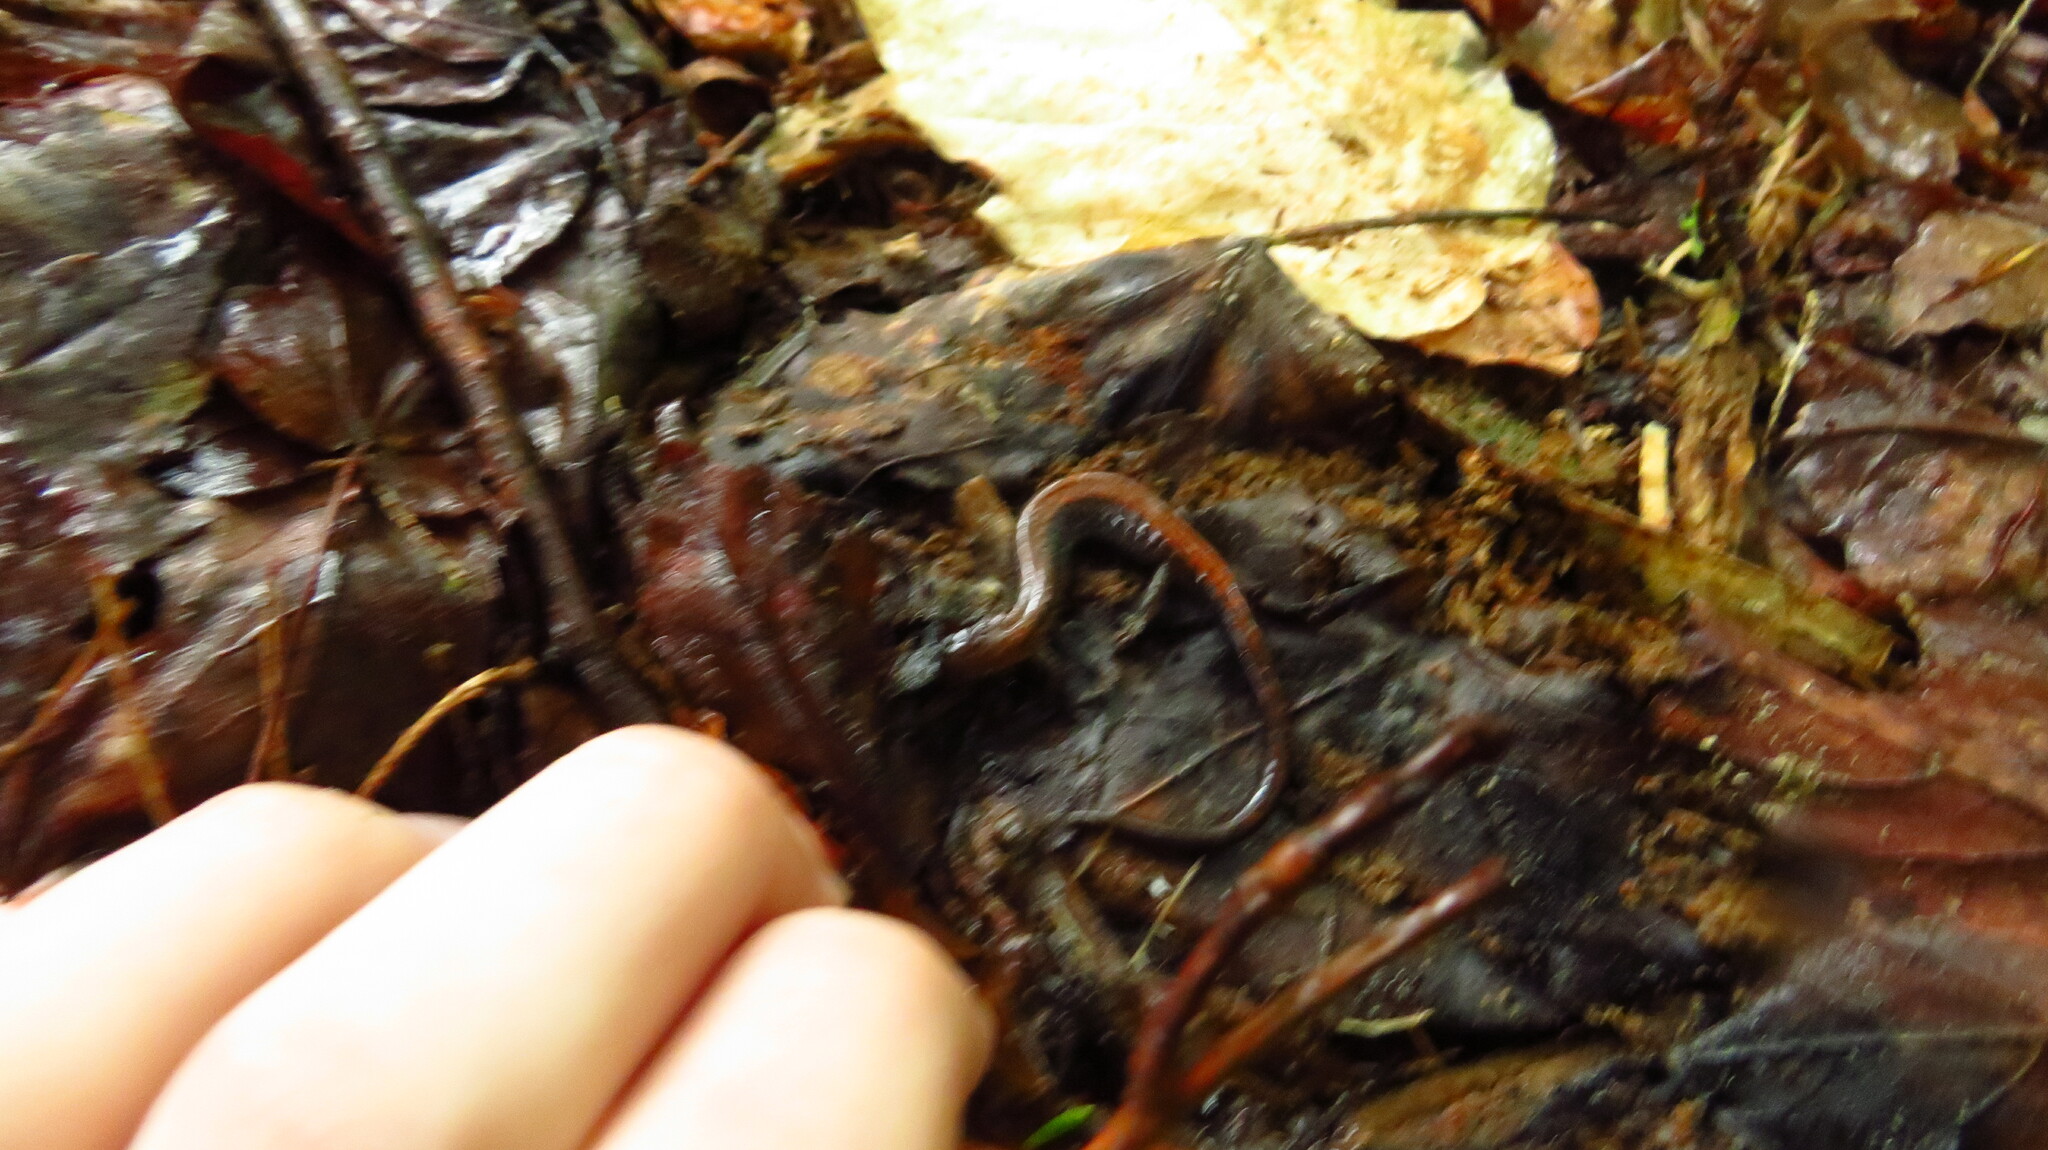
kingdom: Animalia
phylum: Chordata
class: Amphibia
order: Caudata
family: Plethodontidae
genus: Plethodon
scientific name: Plethodon cinereus
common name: Redback salamander
